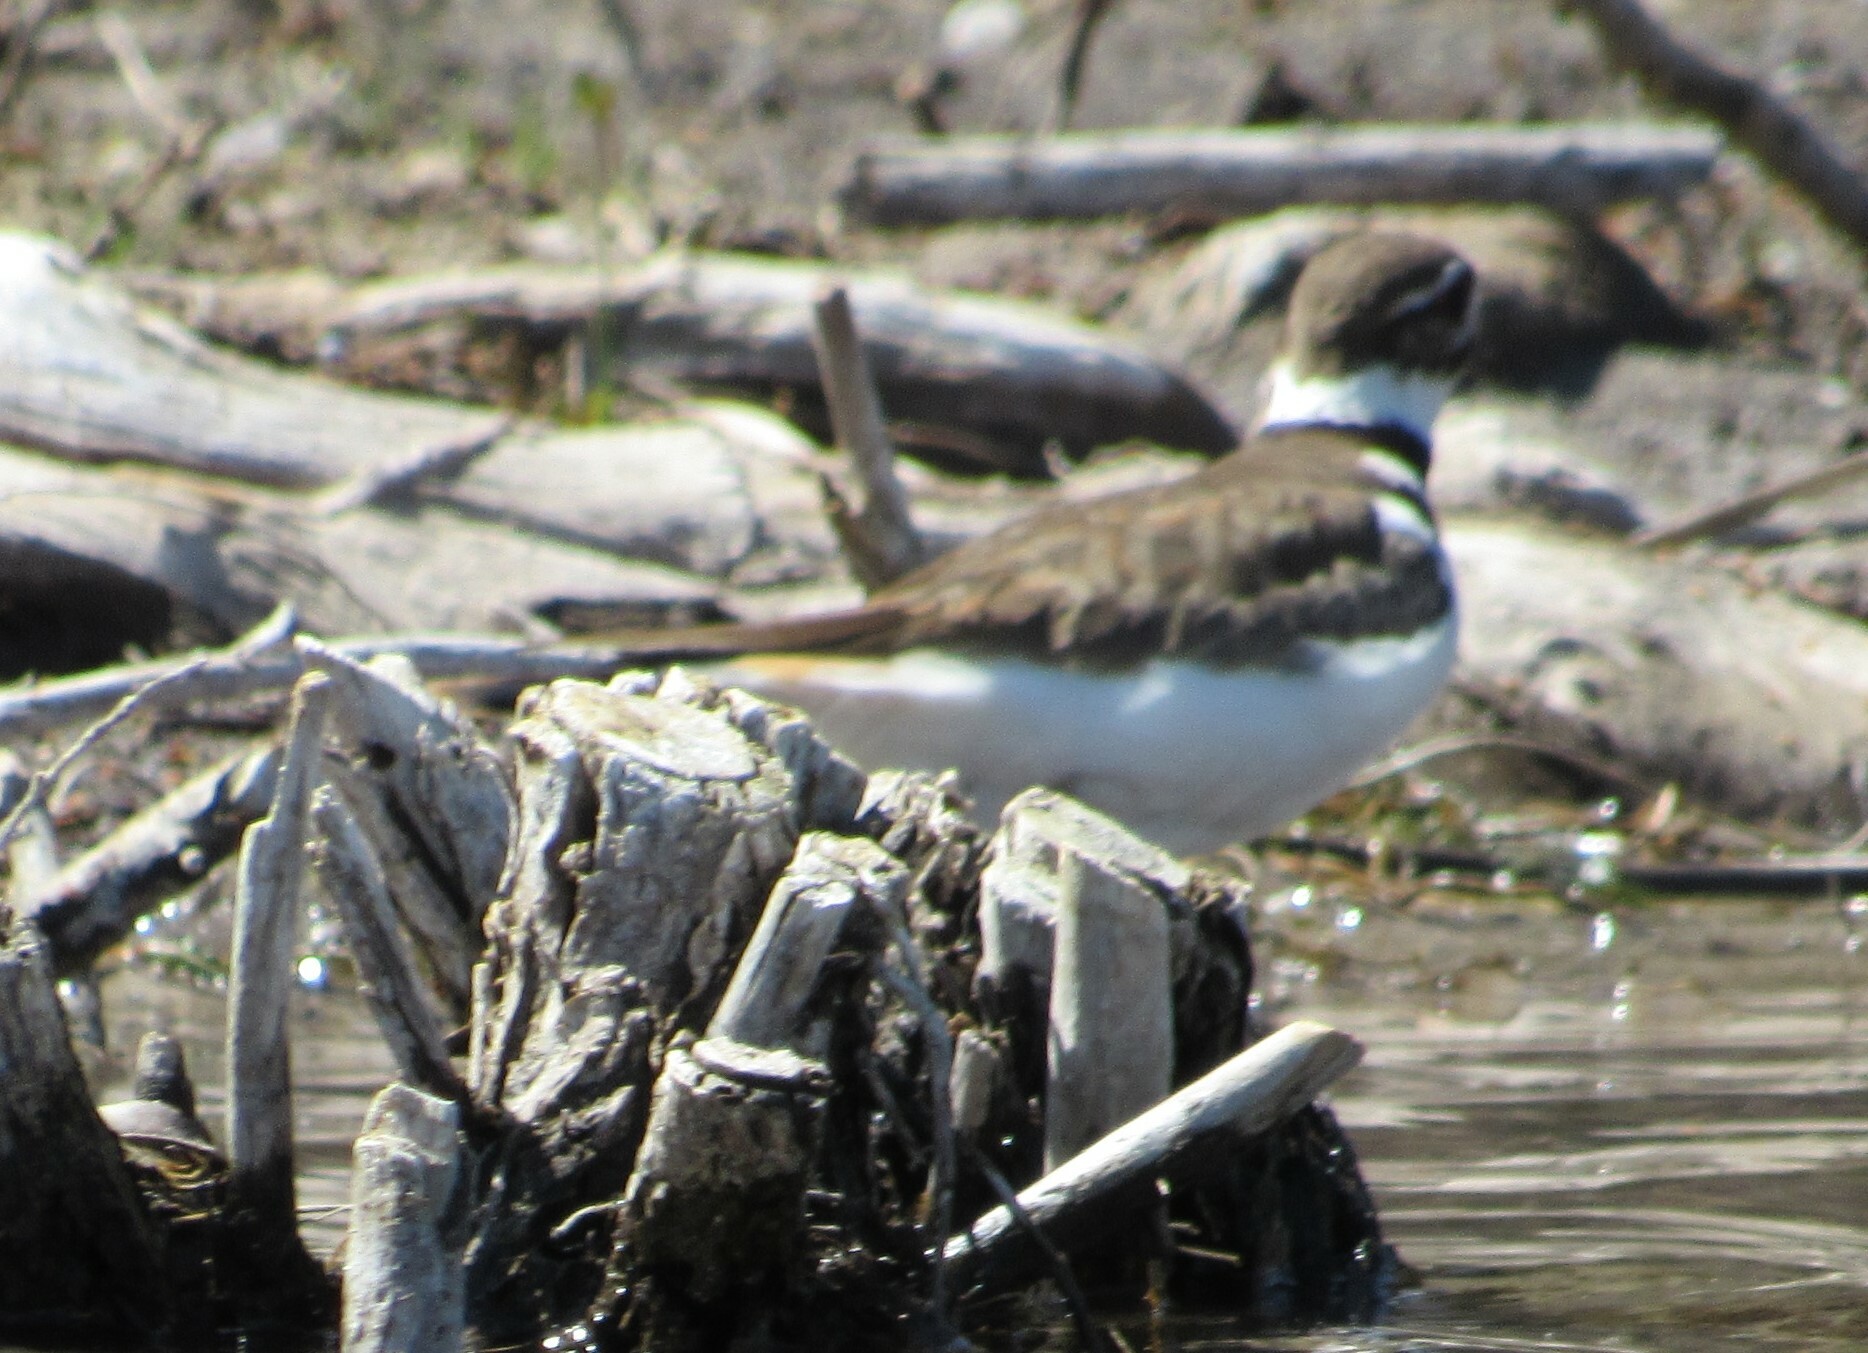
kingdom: Animalia
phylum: Chordata
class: Aves
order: Charadriiformes
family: Charadriidae
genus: Charadrius
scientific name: Charadrius vociferus
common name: Killdeer
